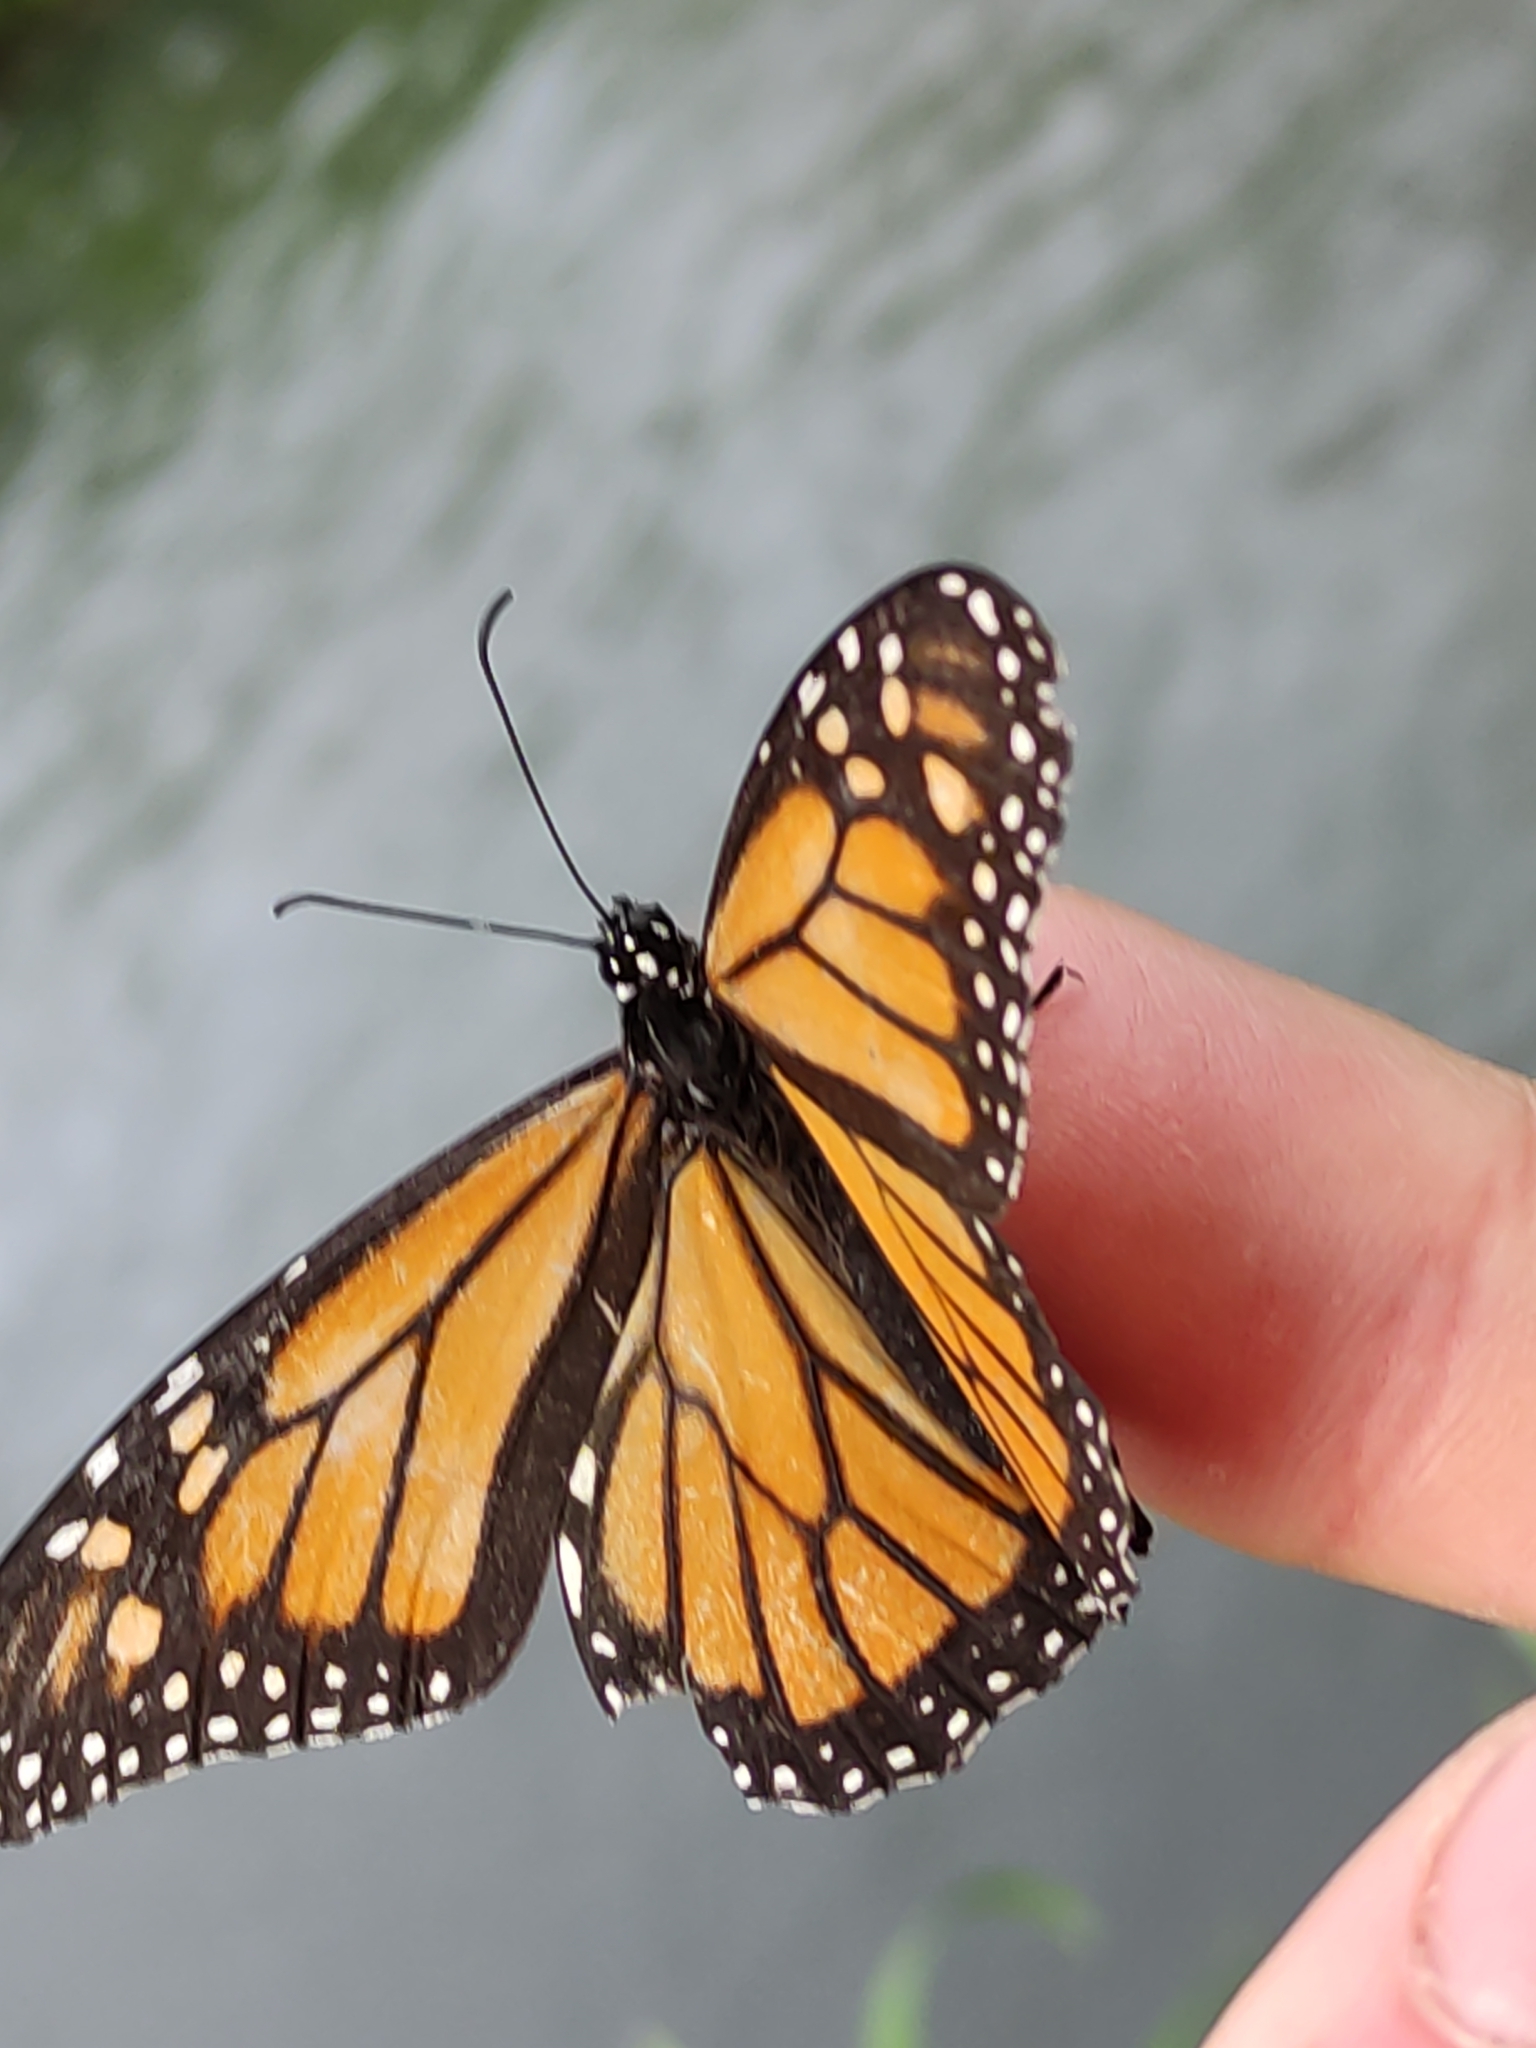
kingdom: Animalia
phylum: Arthropoda
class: Insecta
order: Lepidoptera
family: Nymphalidae
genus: Danaus
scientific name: Danaus plexippus
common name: Monarch
